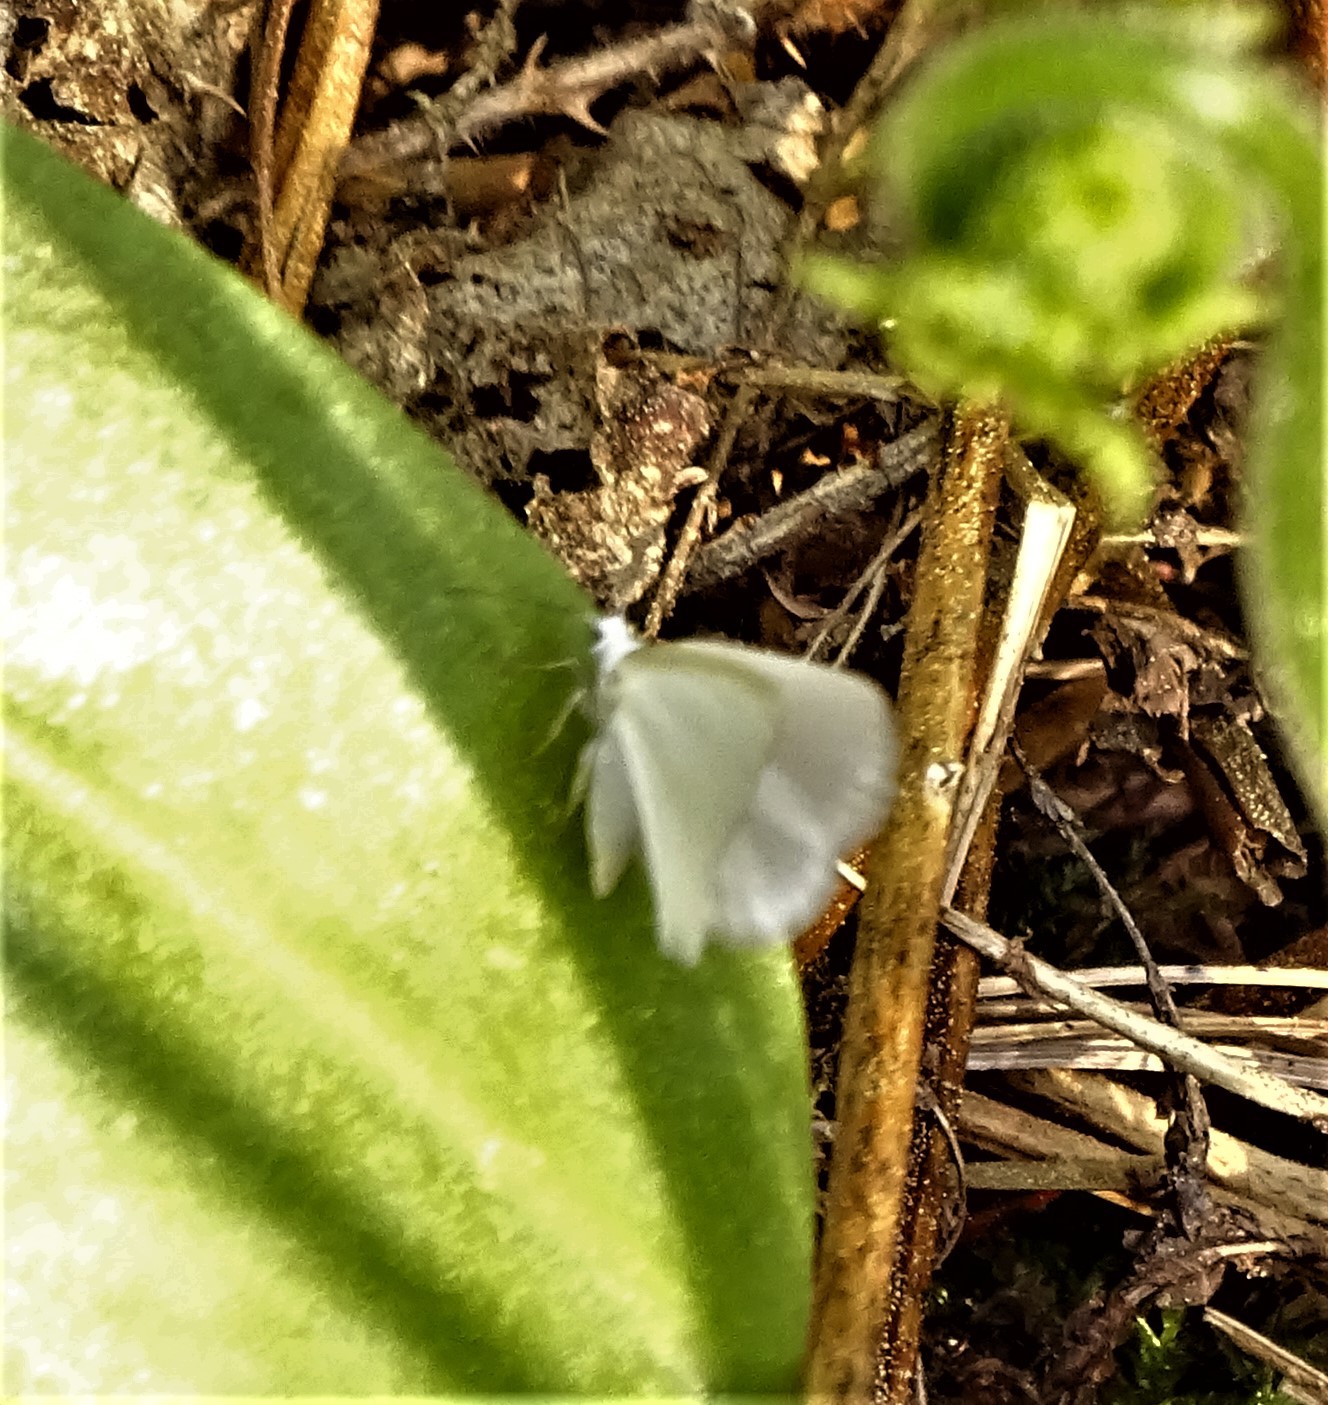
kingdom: Animalia
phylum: Arthropoda
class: Insecta
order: Lepidoptera
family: Geometridae
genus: Lomographa
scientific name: Lomographa vestaliata
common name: White spring moth
